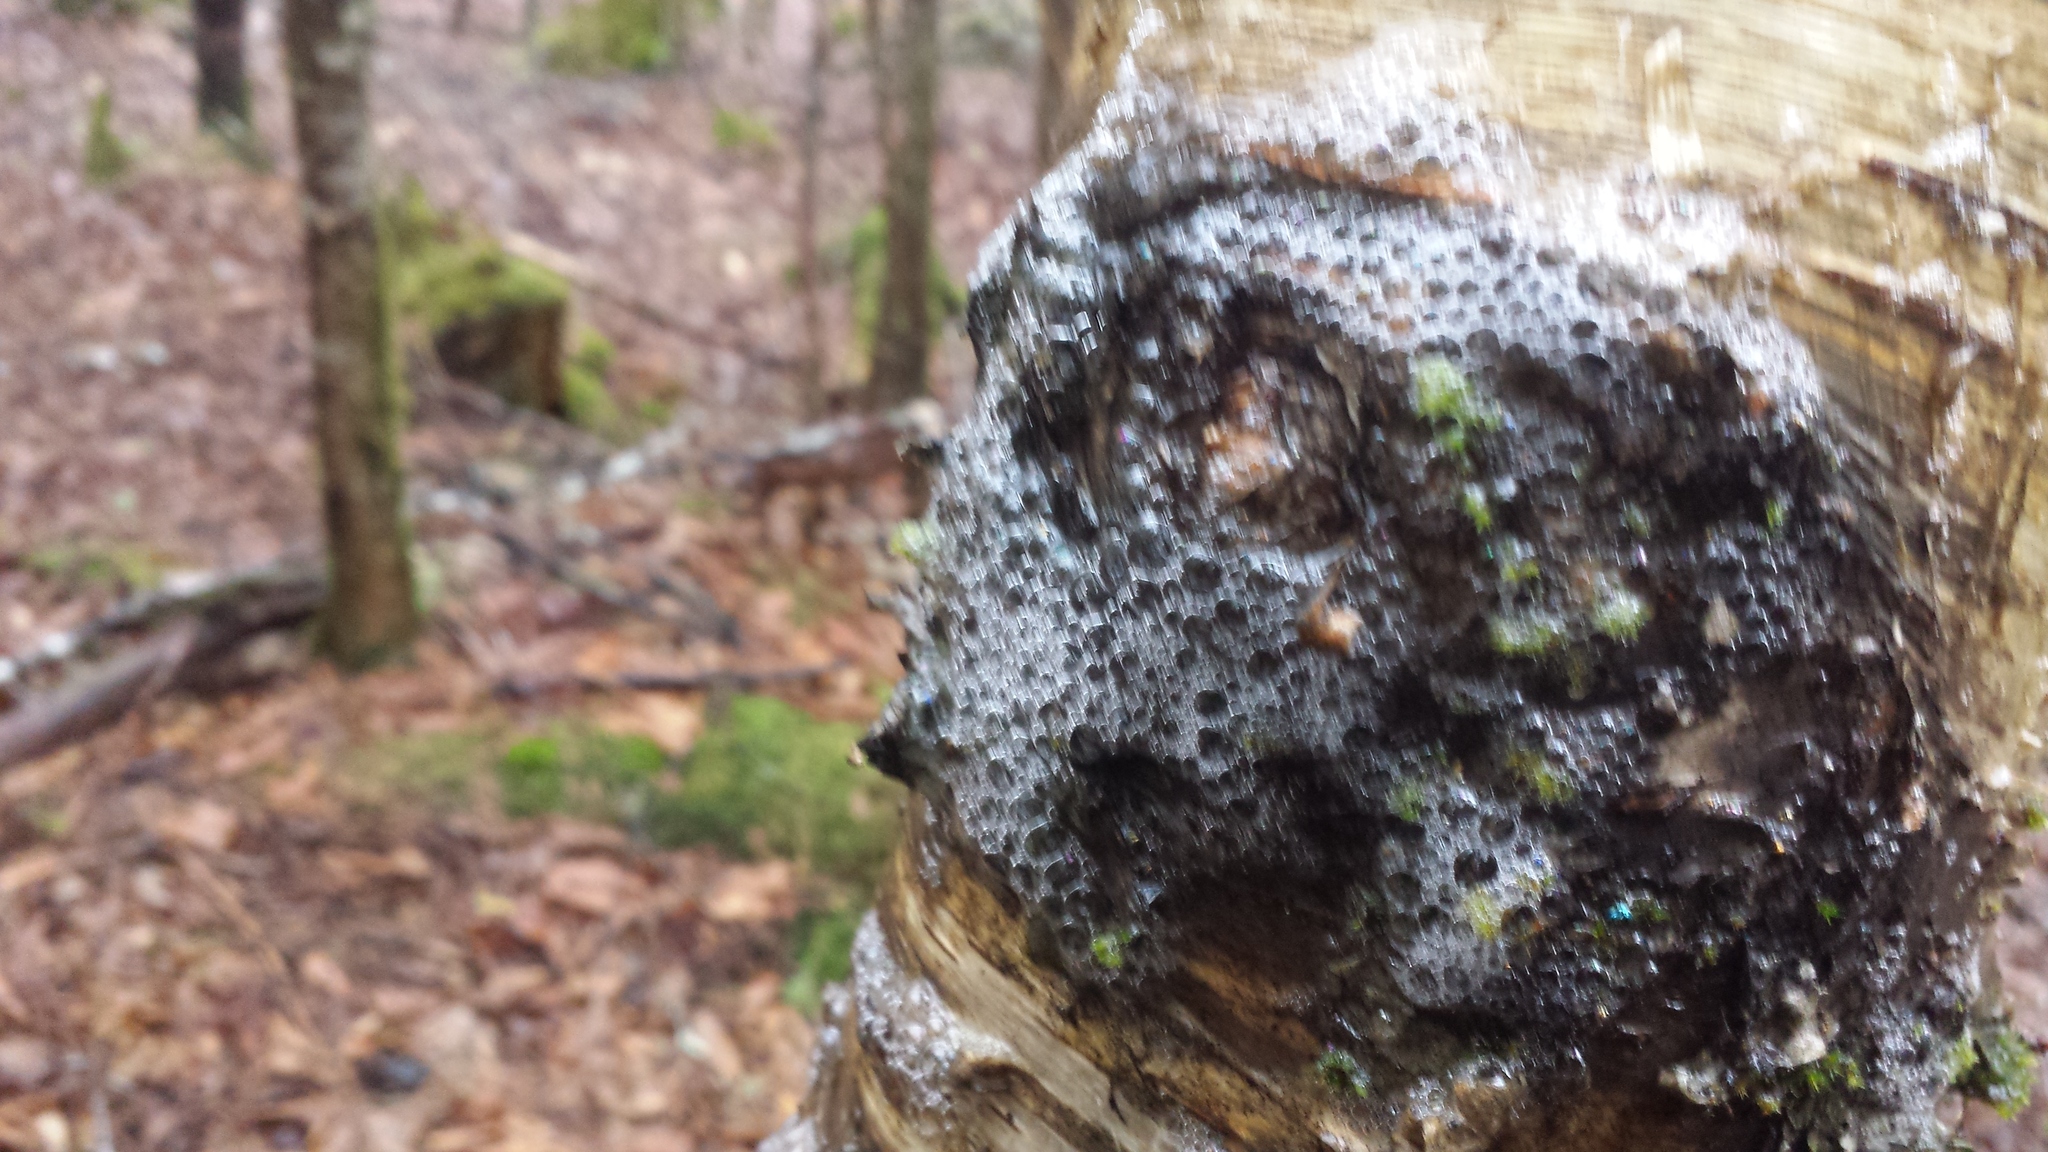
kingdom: Plantae
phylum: Tracheophyta
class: Magnoliopsida
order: Fagales
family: Betulaceae
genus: Betula
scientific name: Betula alleghaniensis
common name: Yellow birch
